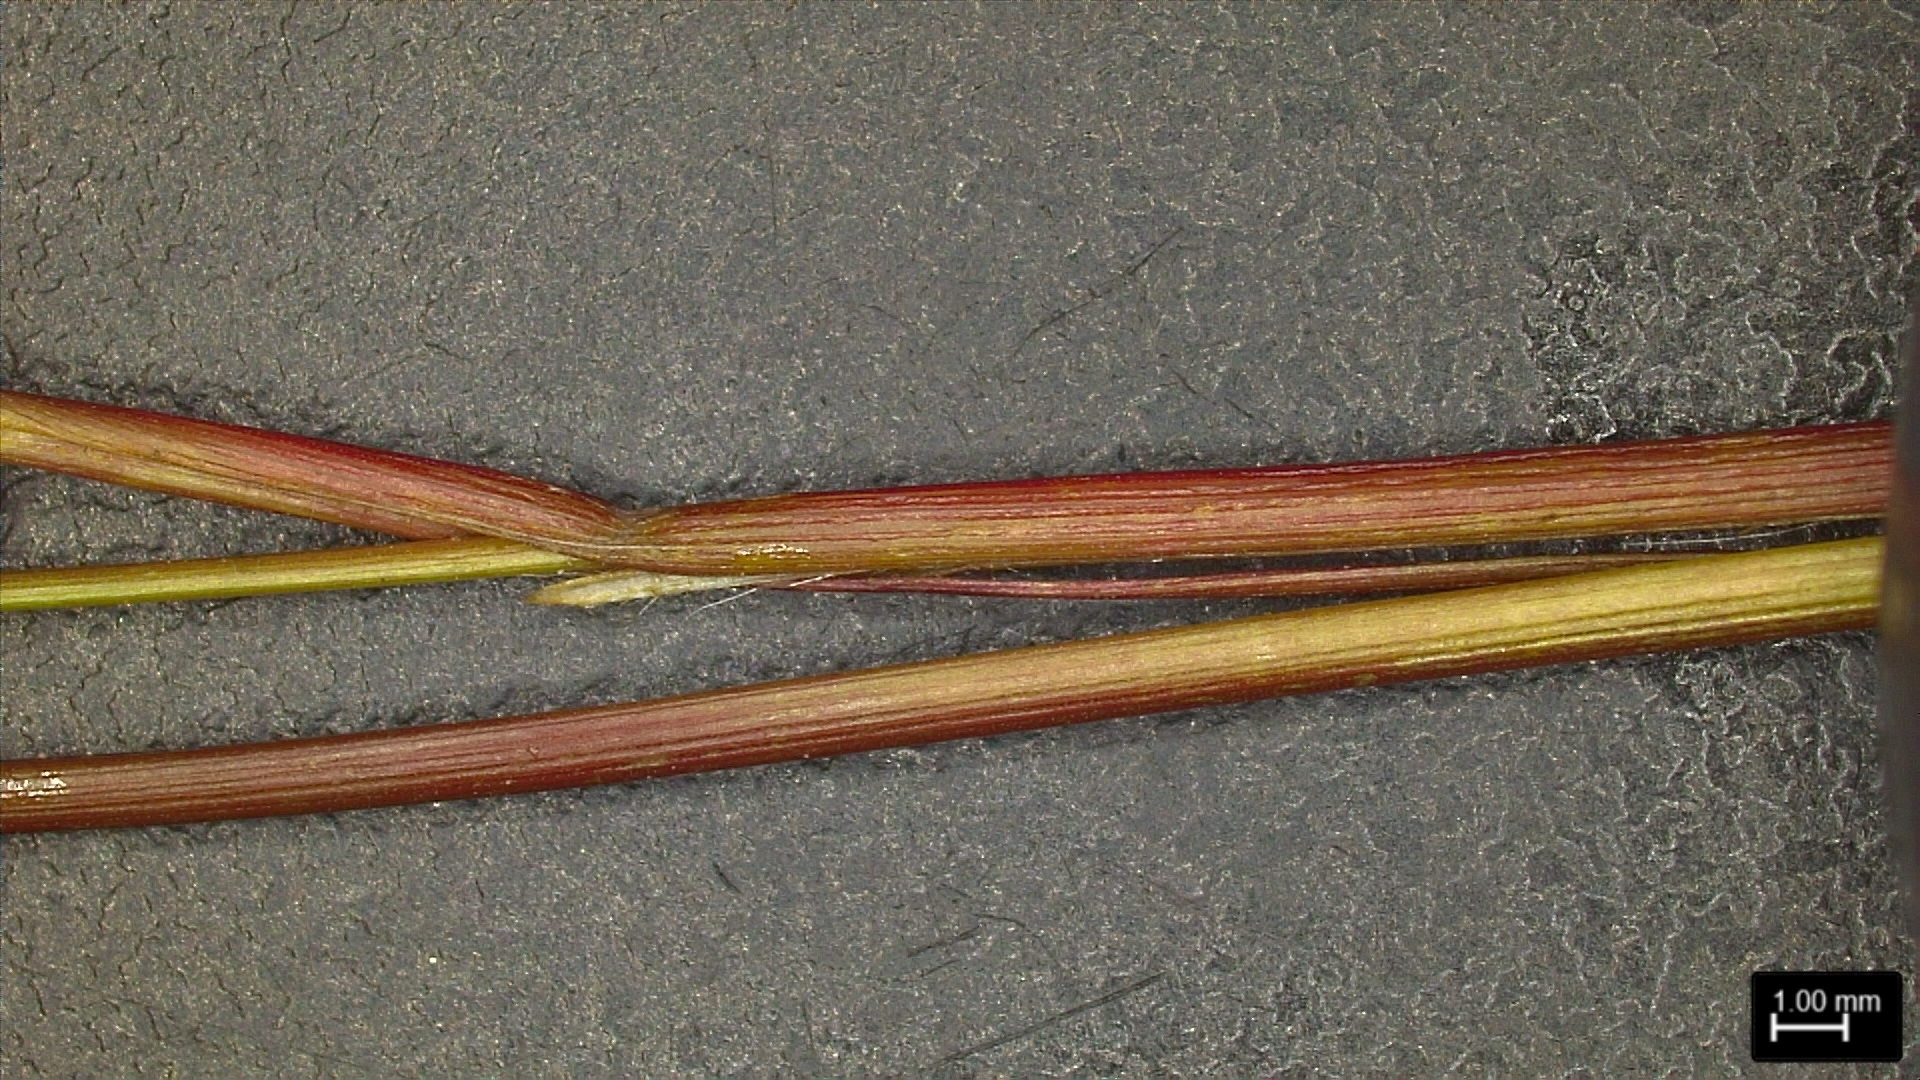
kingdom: Plantae
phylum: Tracheophyta
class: Liliopsida
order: Poales
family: Poaceae
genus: Dichanthelium
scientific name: Dichanthelium lindheimeri
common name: Lindheimer's panicgrass
